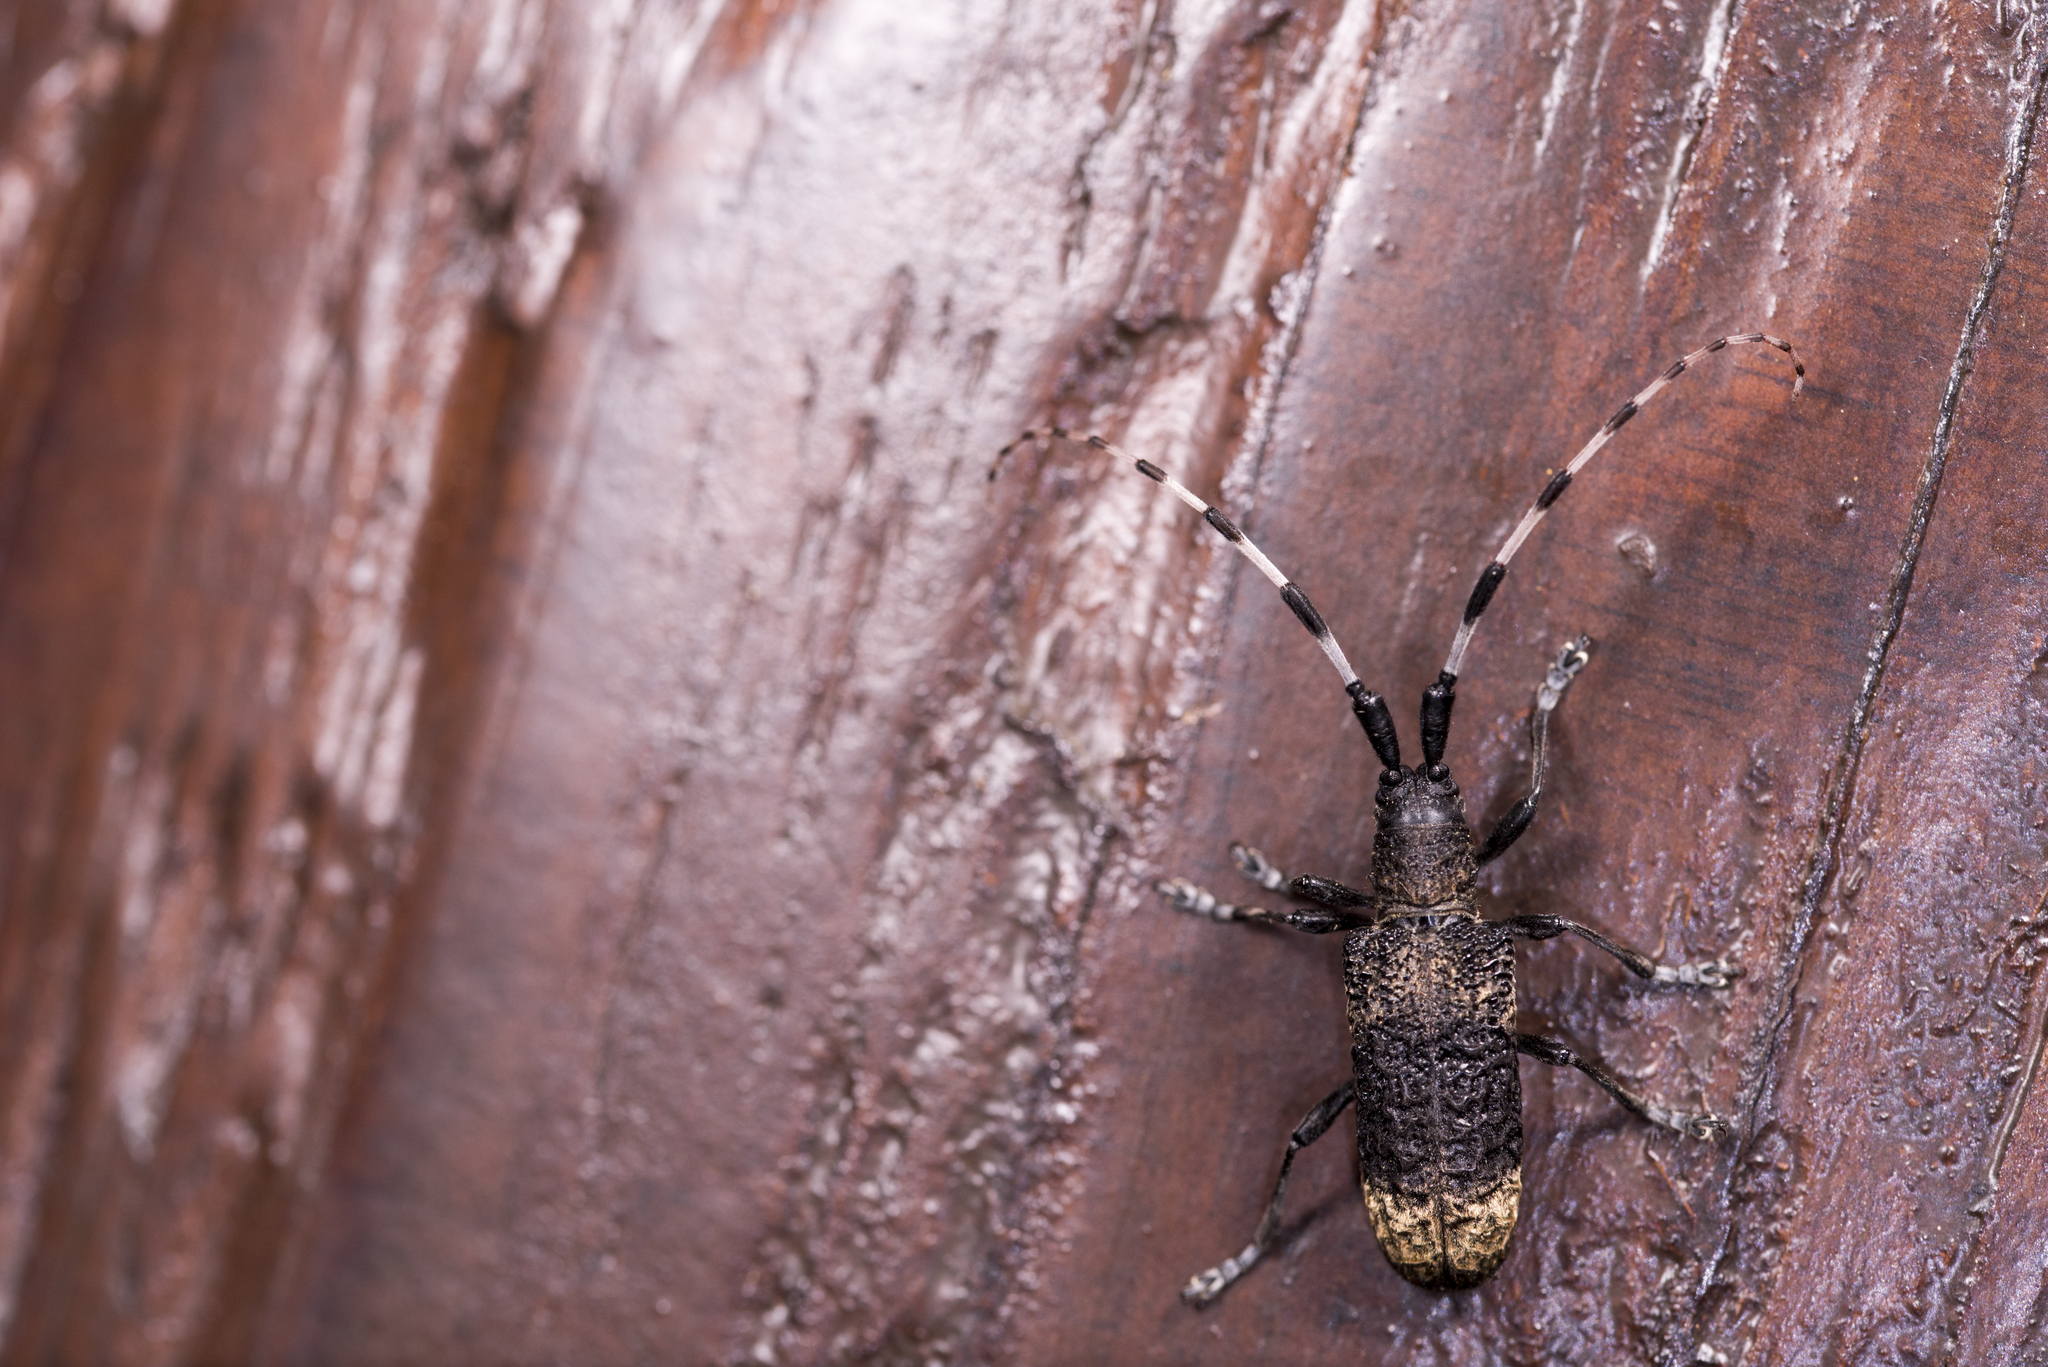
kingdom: Animalia
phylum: Arthropoda
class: Insecta
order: Coleoptera
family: Cerambycidae
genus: Parapolytretus
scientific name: Parapolytretus rugosus
